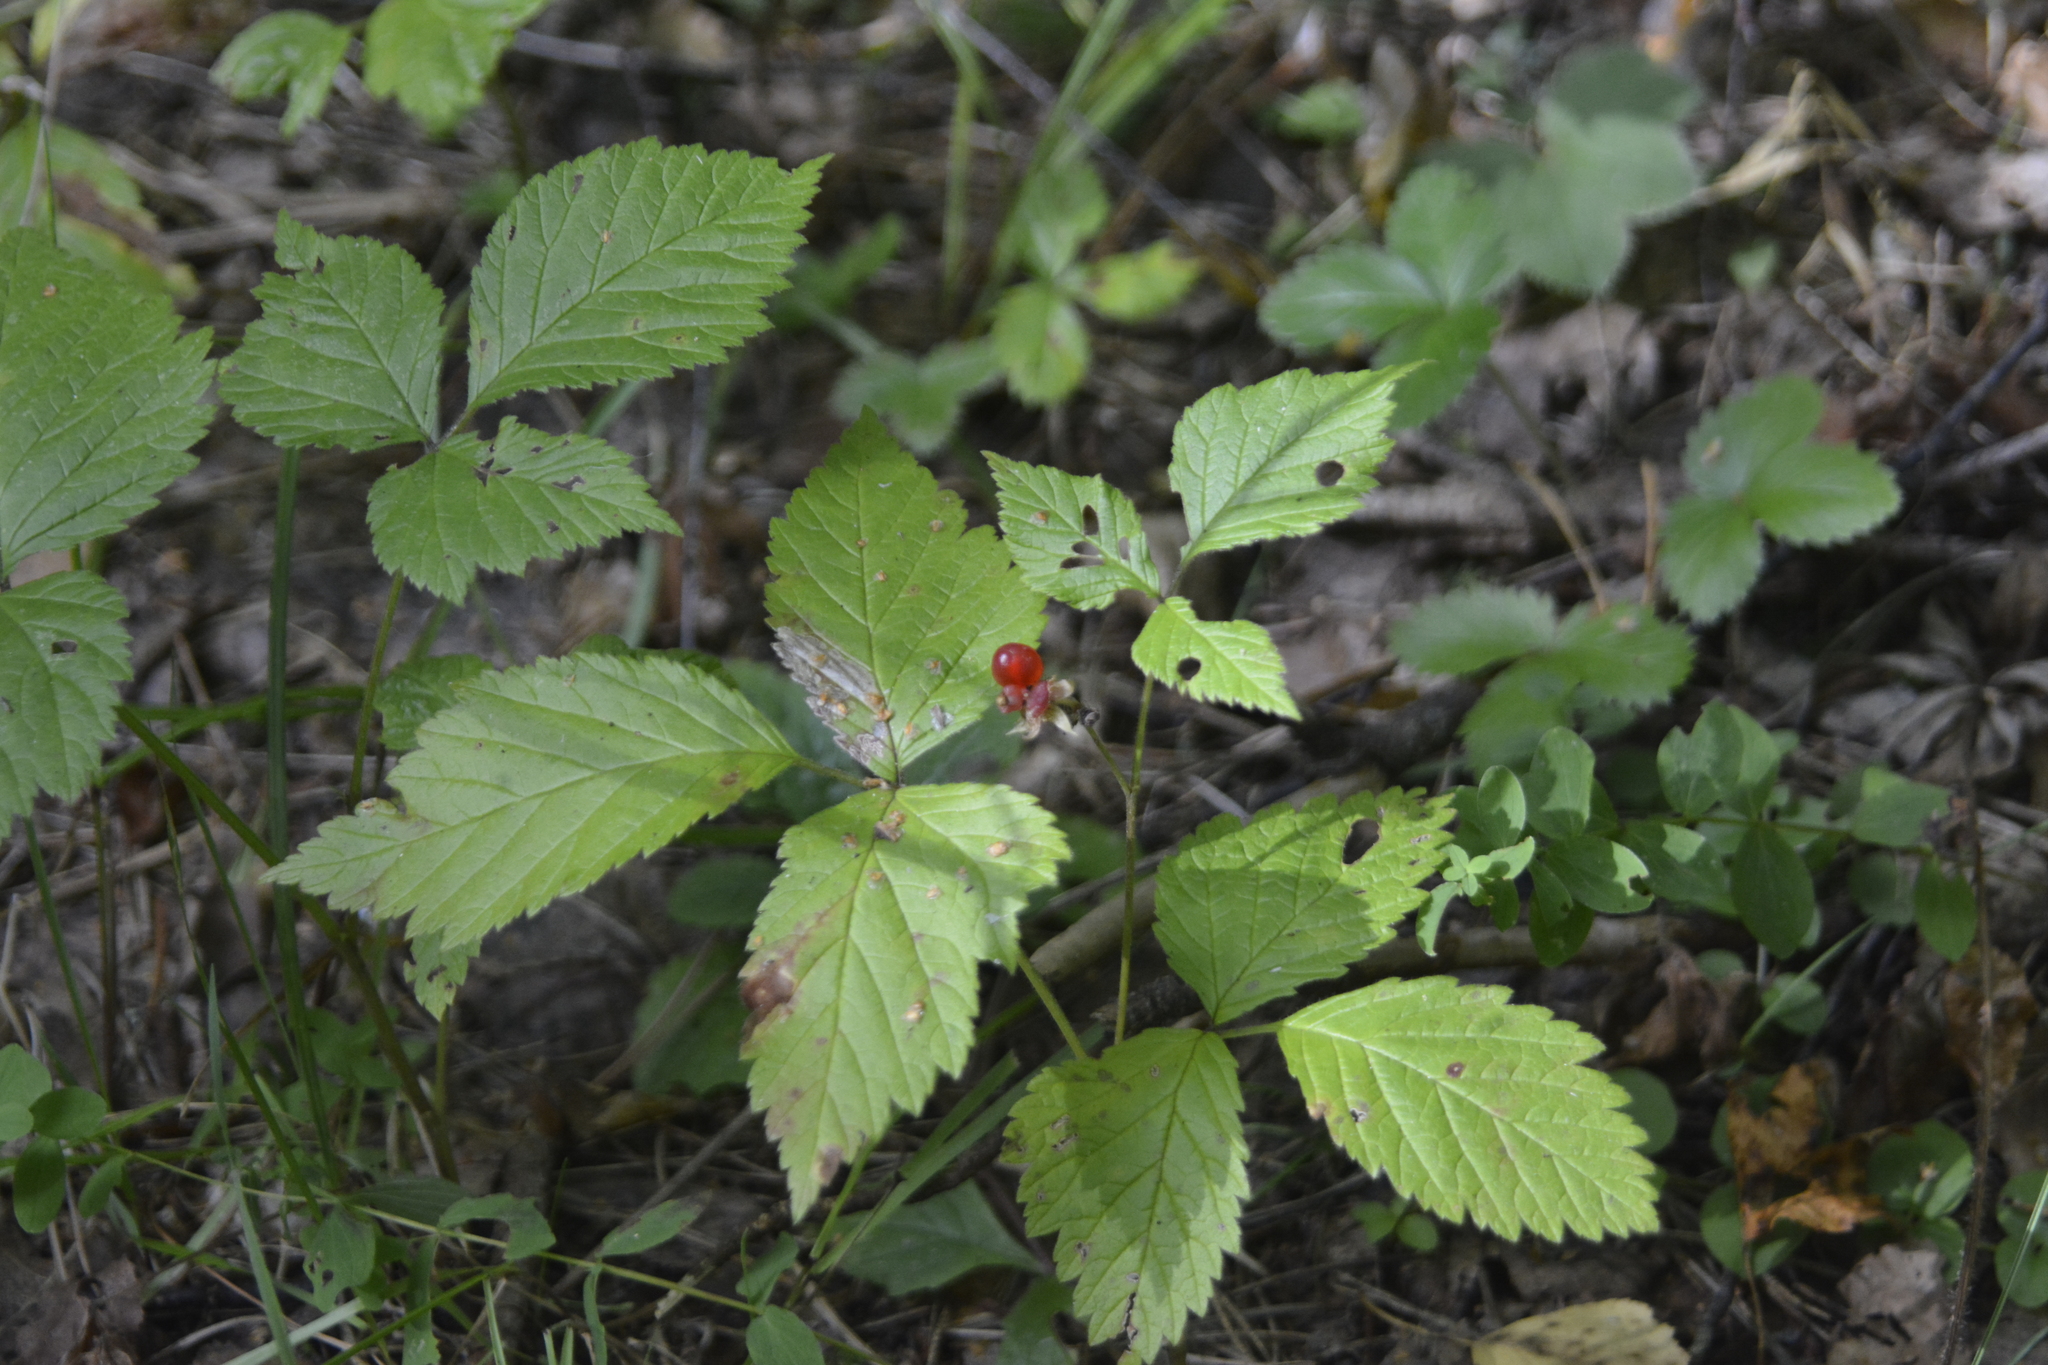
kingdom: Plantae
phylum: Tracheophyta
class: Magnoliopsida
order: Rosales
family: Rosaceae
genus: Rubus
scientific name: Rubus saxatilis
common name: Stone bramble
